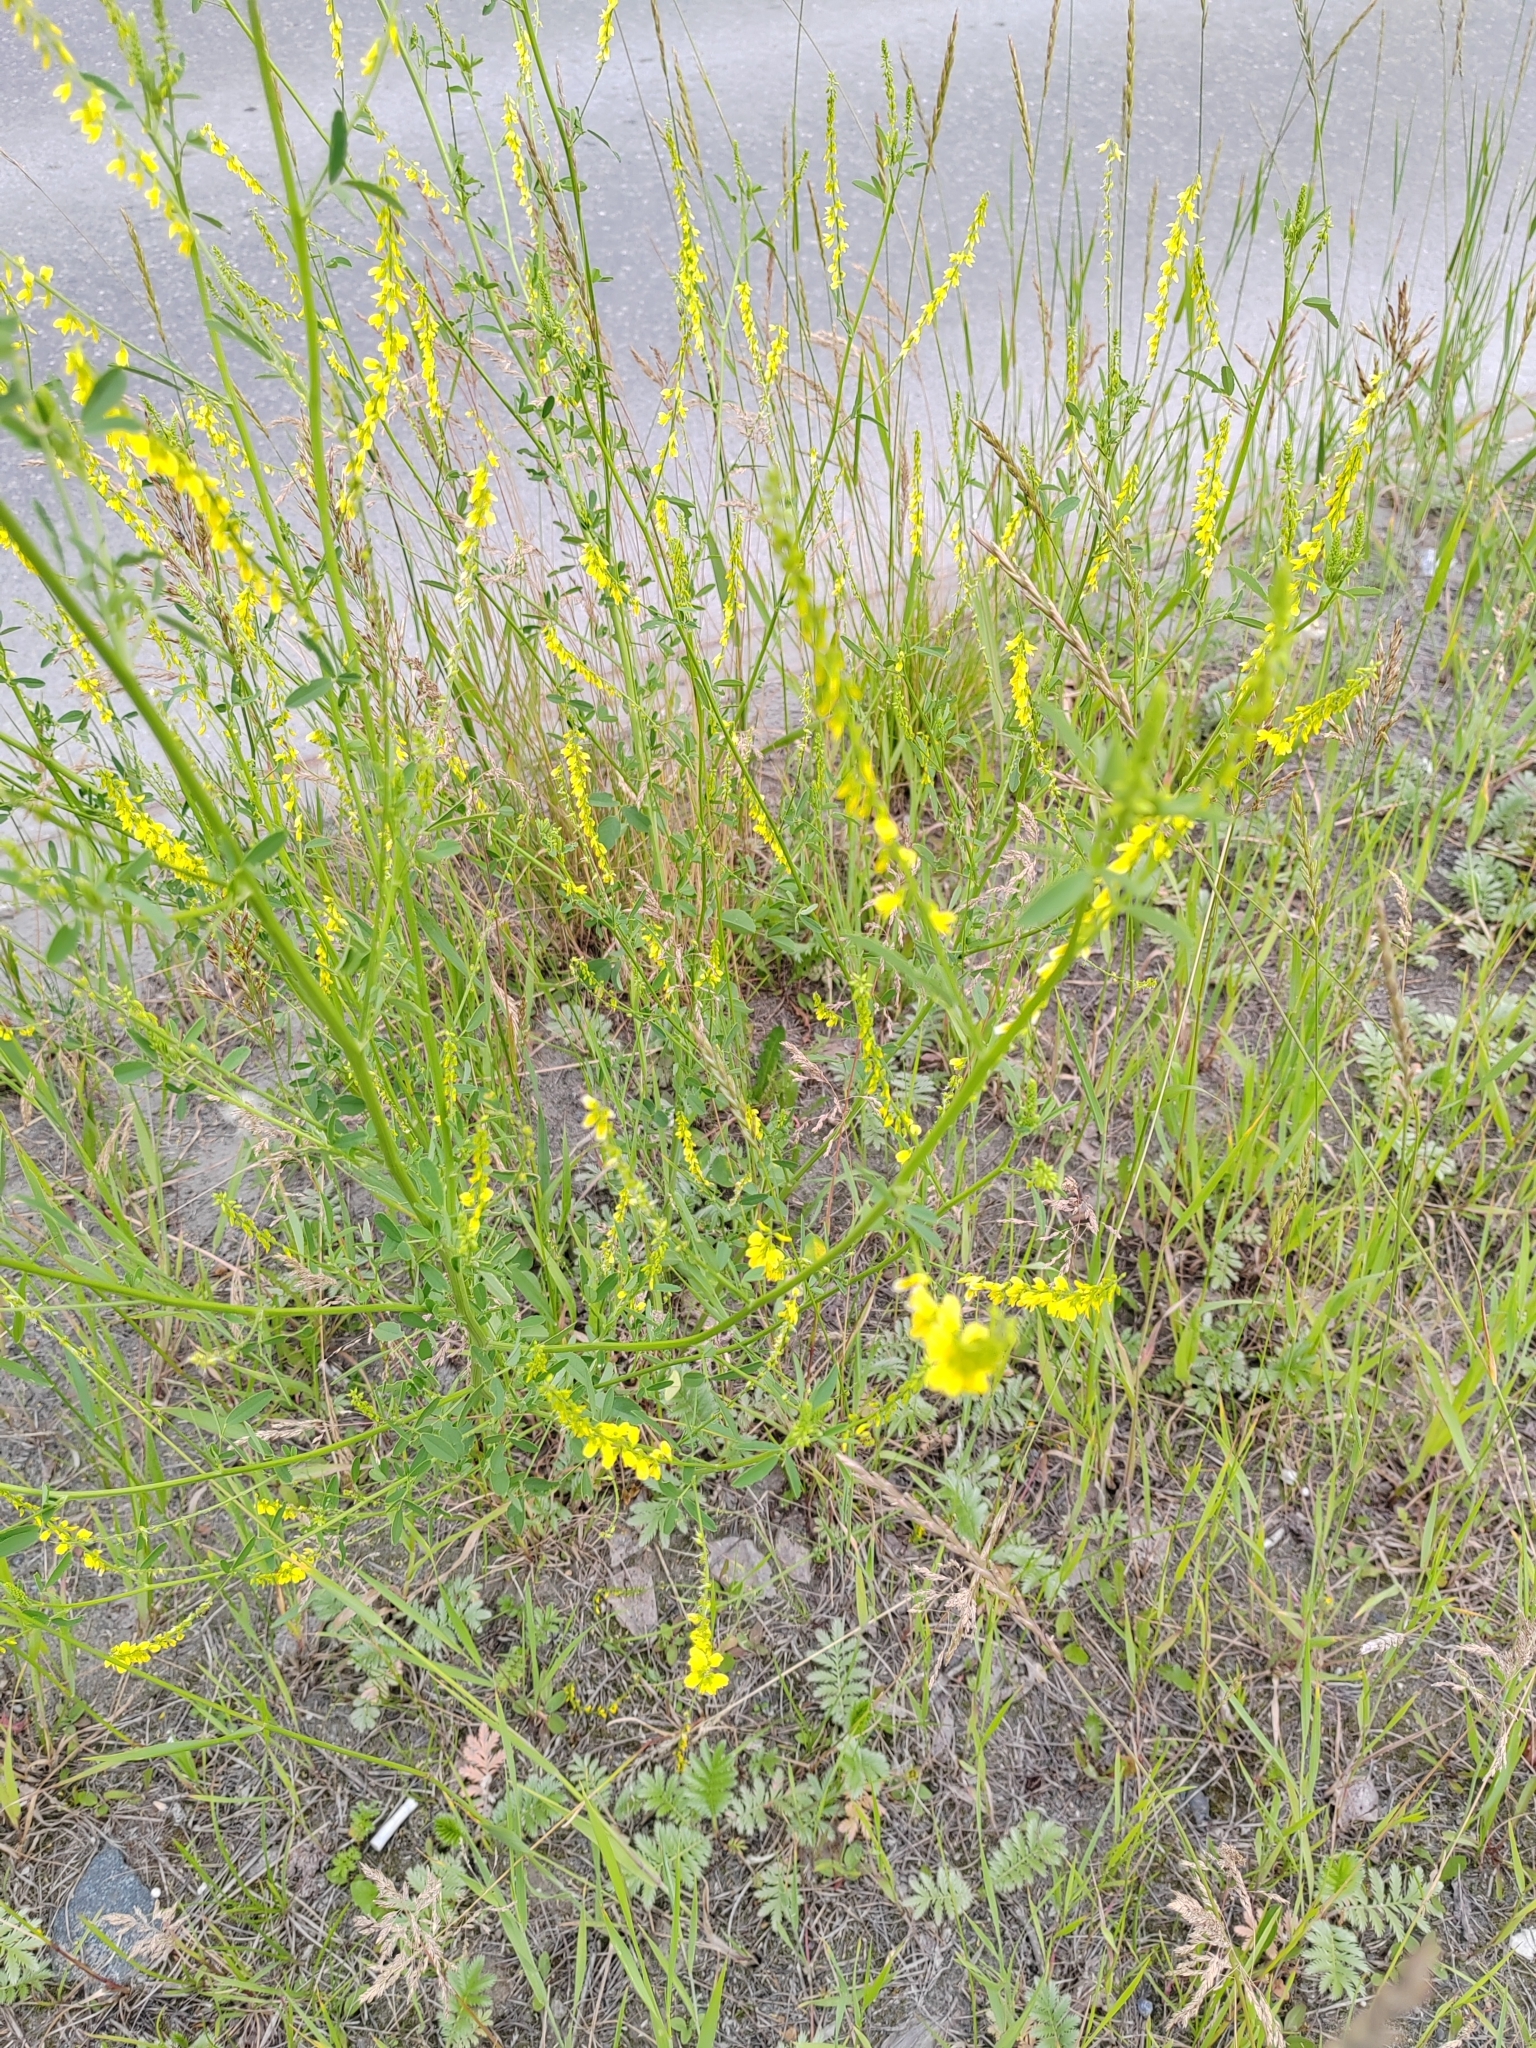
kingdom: Plantae
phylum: Tracheophyta
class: Magnoliopsida
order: Fabales
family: Fabaceae
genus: Melilotus
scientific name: Melilotus officinalis
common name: Sweetclover
